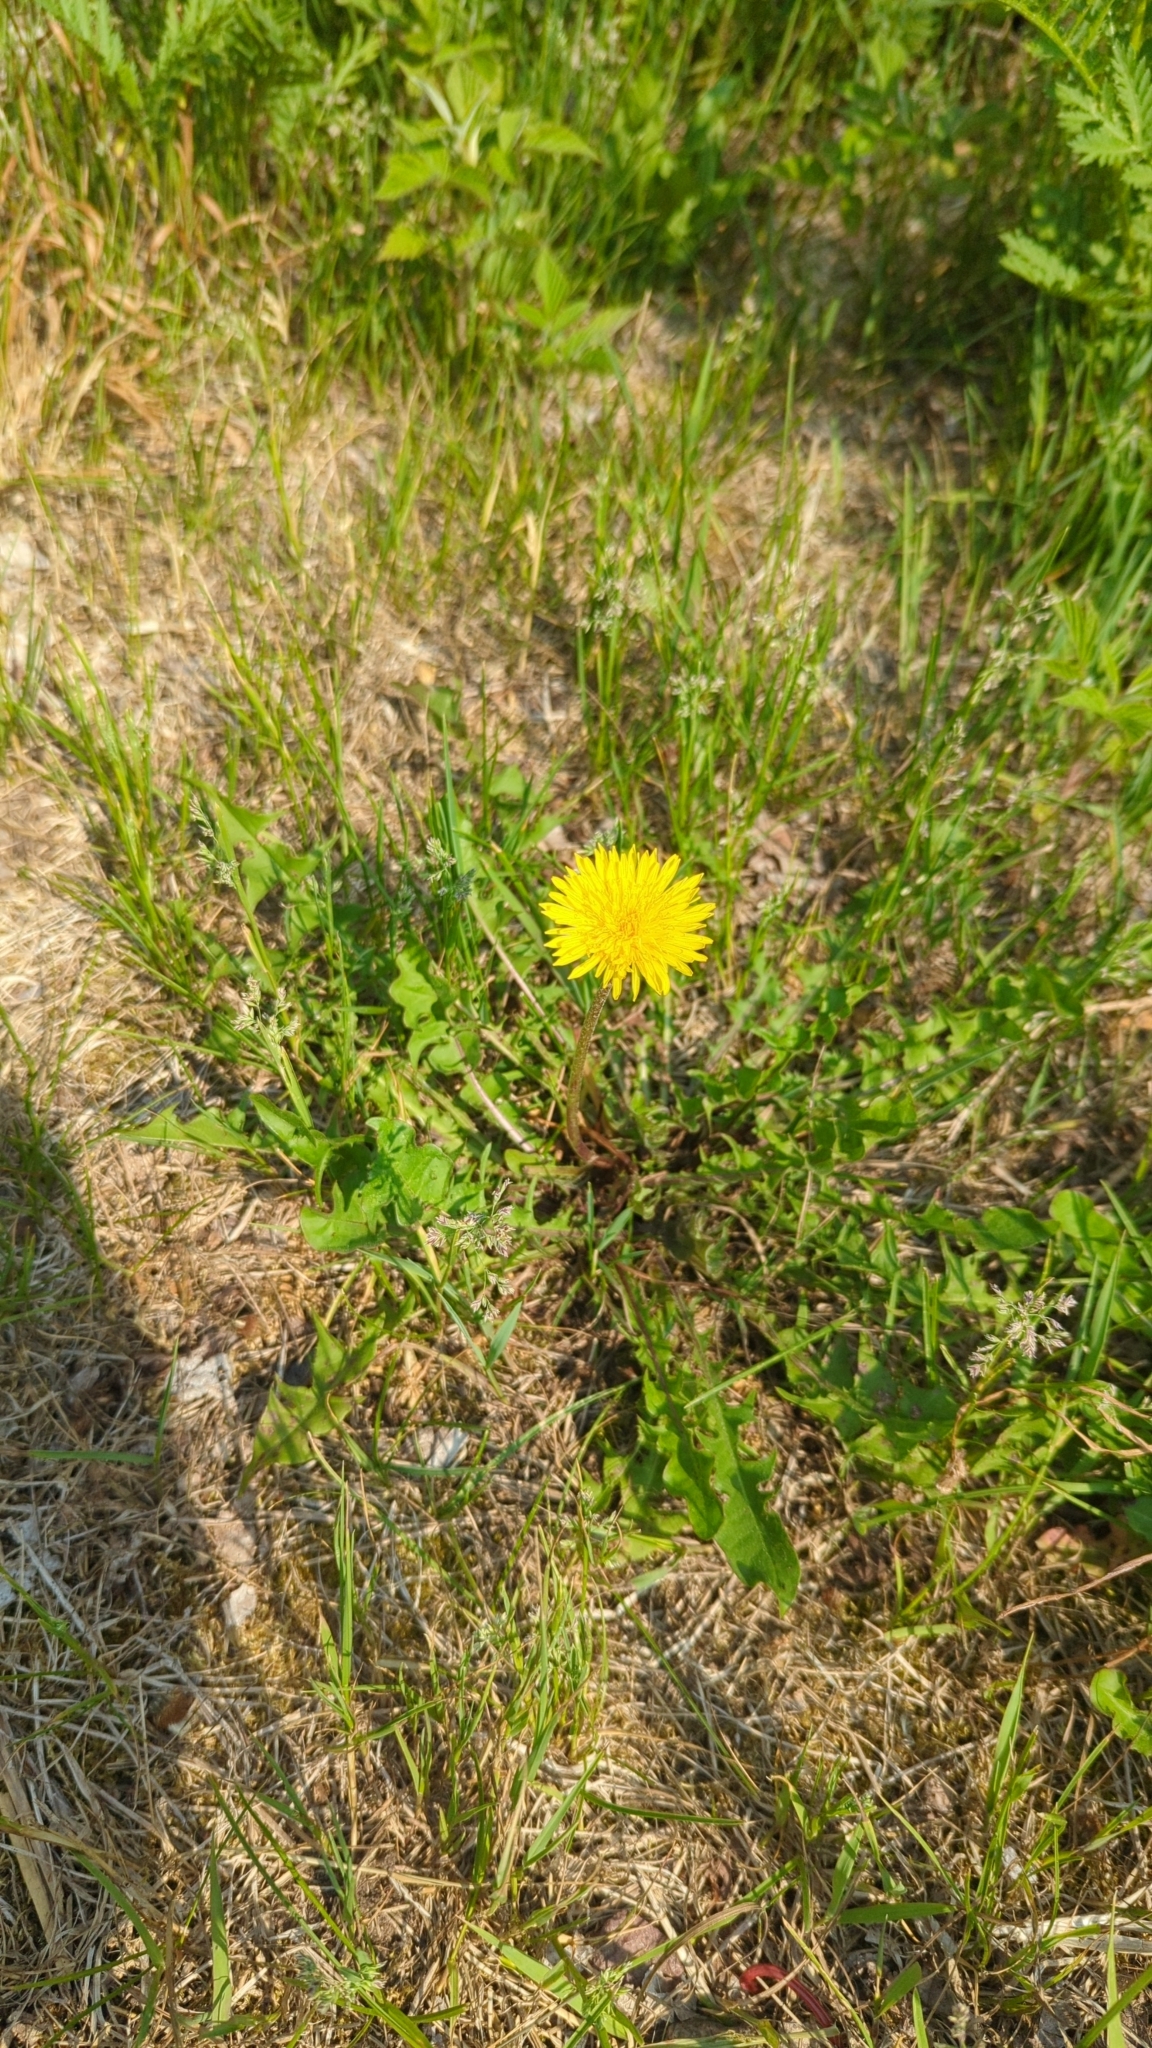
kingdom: Plantae
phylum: Tracheophyta
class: Magnoliopsida
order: Asterales
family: Asteraceae
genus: Taraxacum
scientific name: Taraxacum
